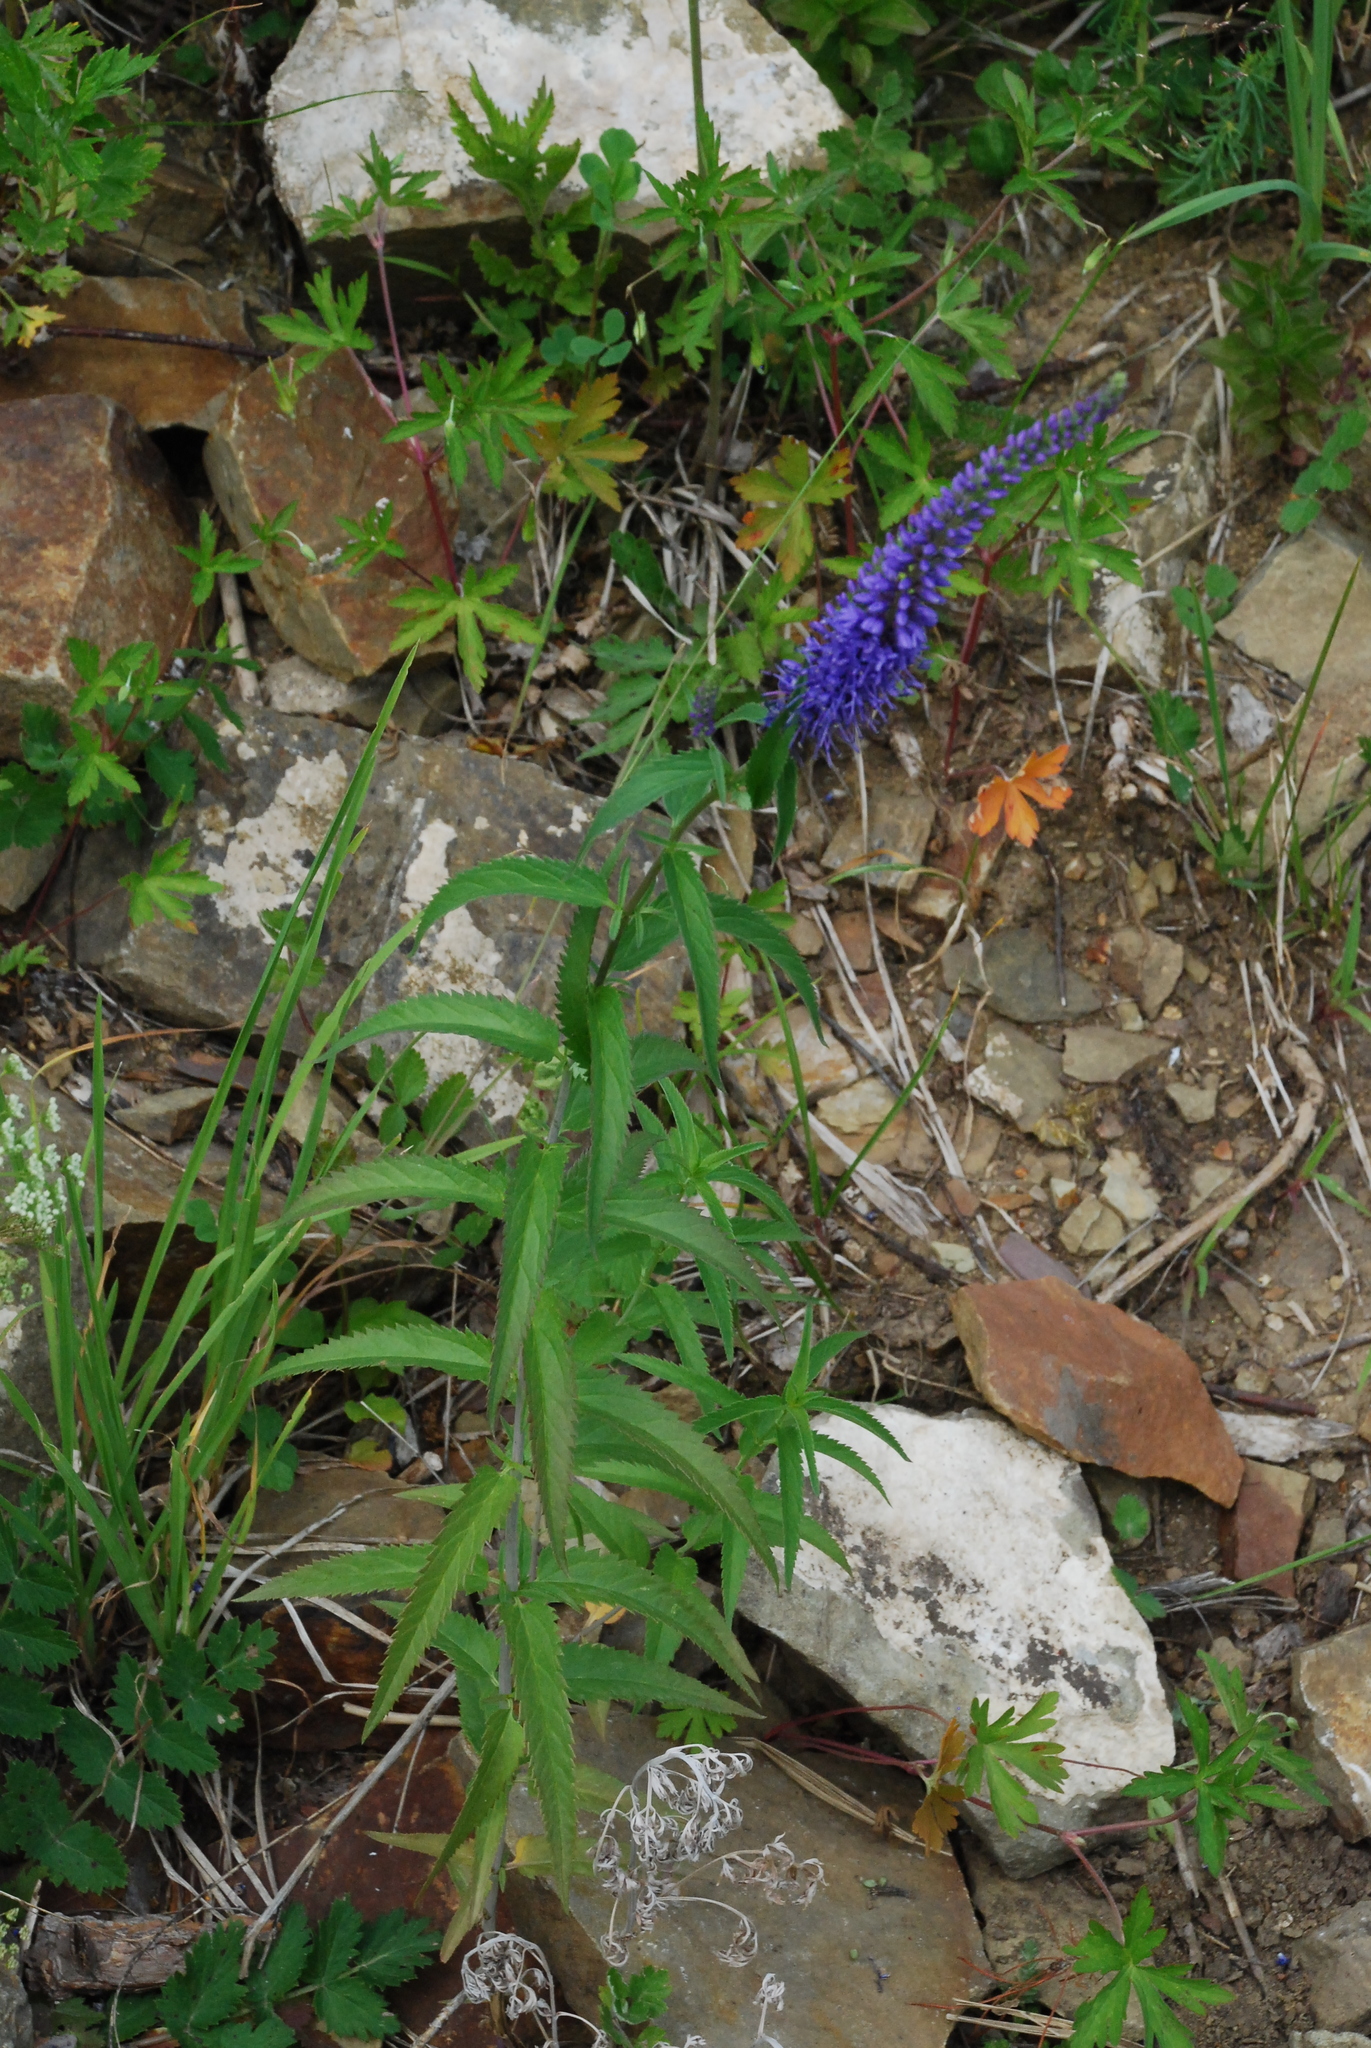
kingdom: Plantae
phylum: Tracheophyta
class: Magnoliopsida
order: Lamiales
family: Plantaginaceae
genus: Veronica
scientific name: Veronica longifolia
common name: Garden speedwell
